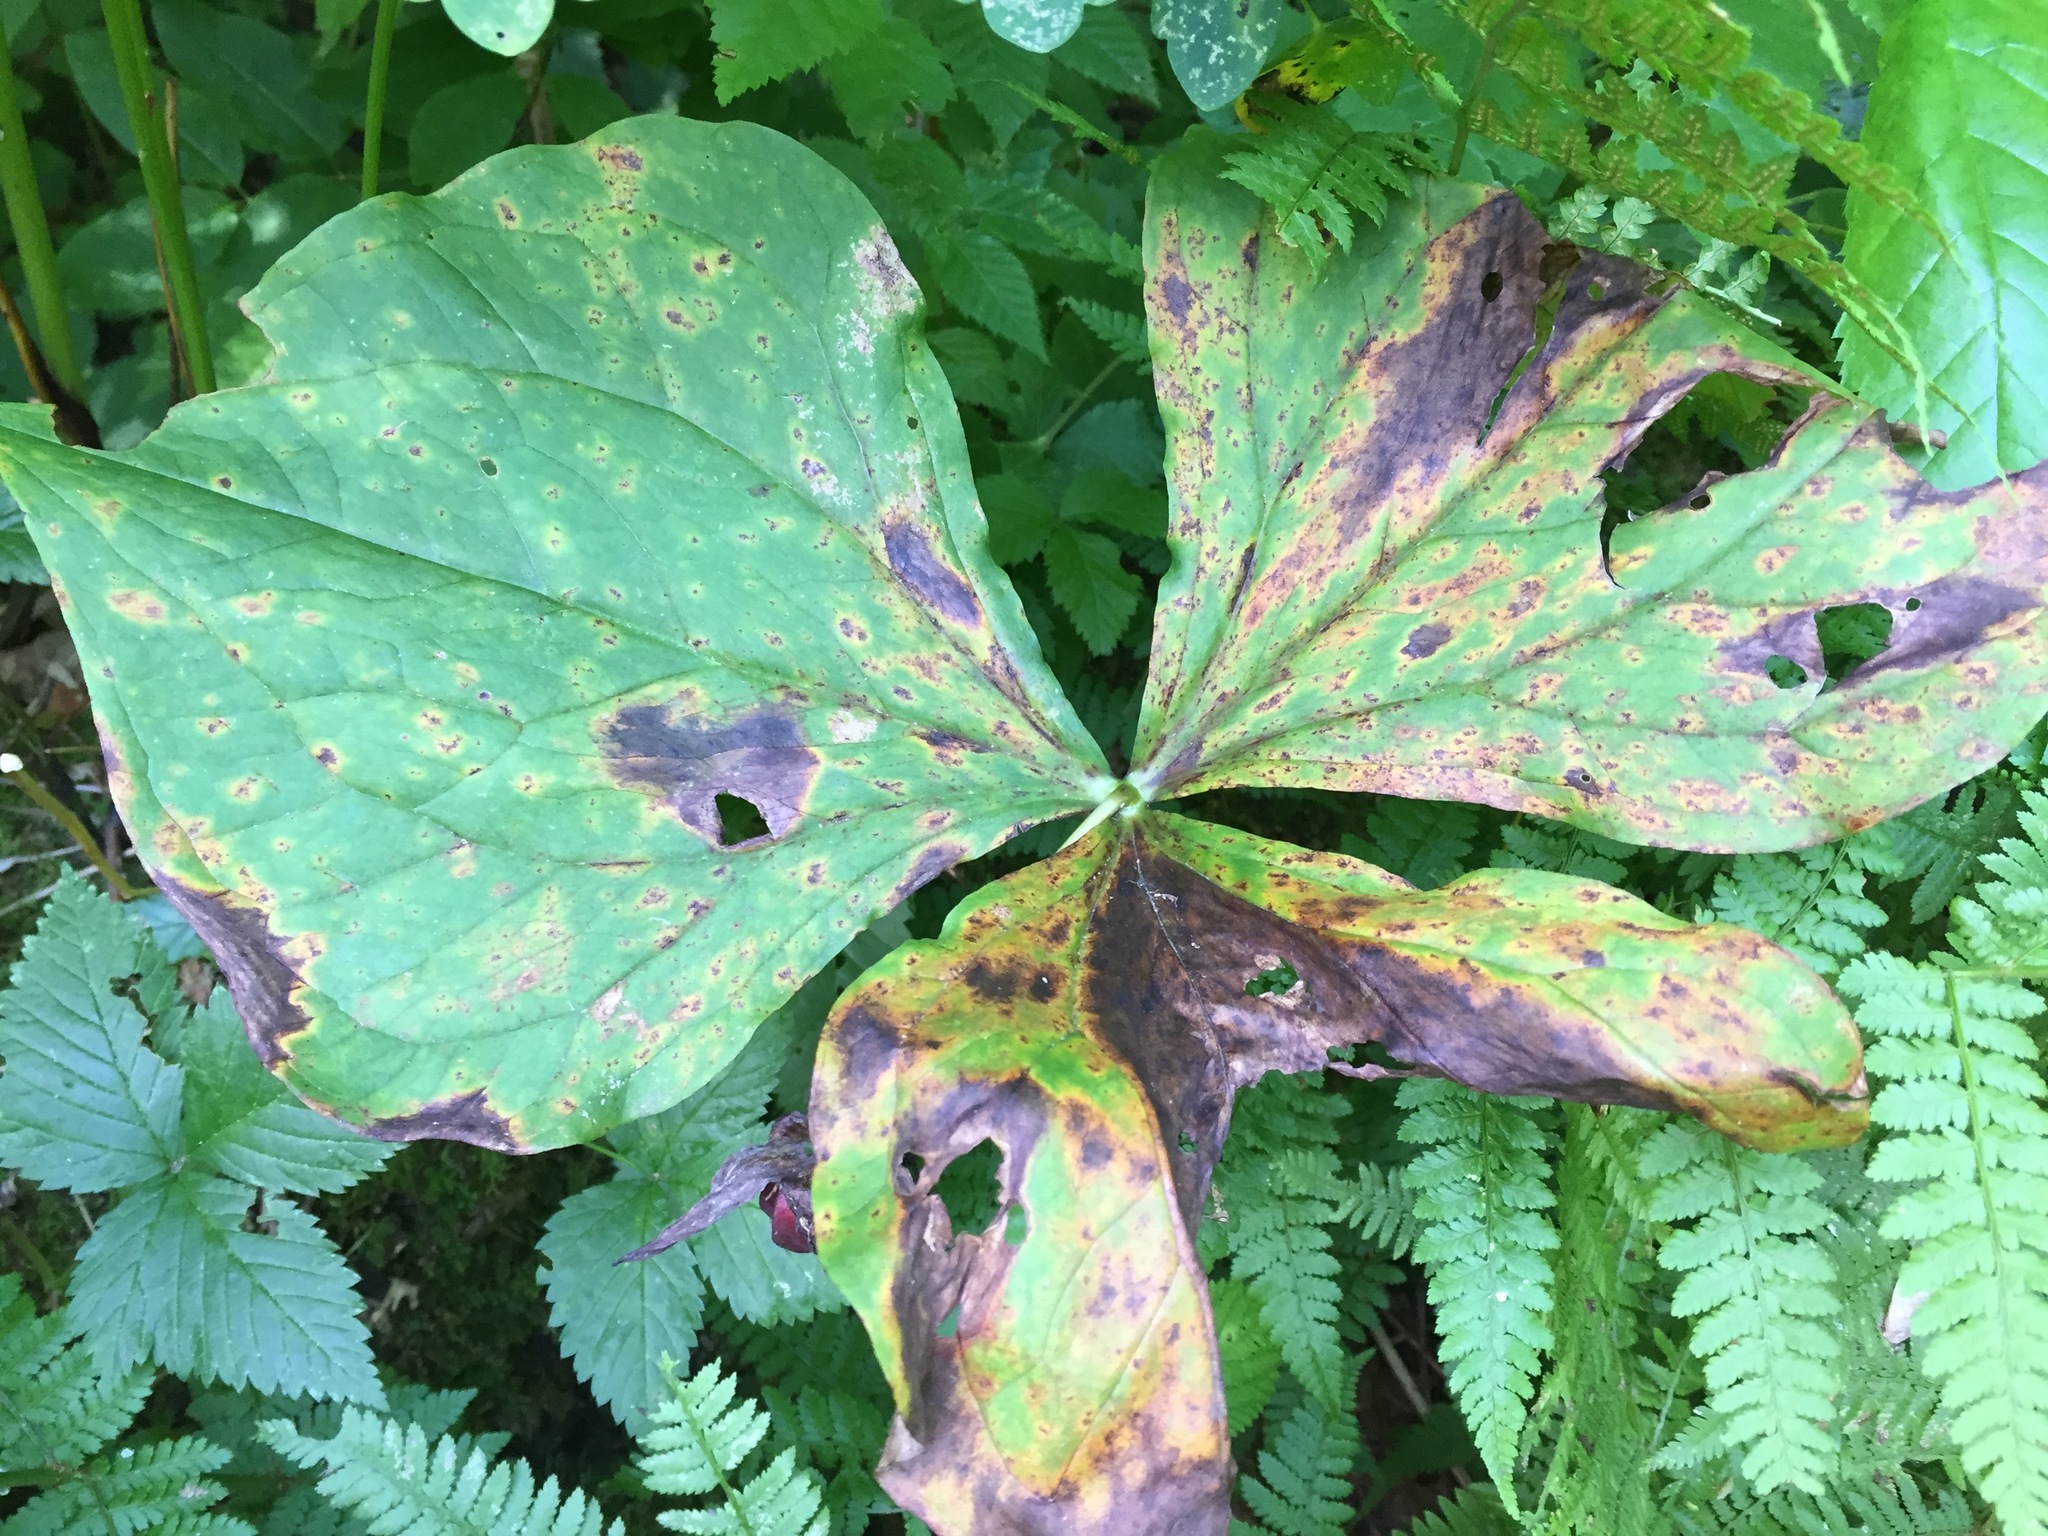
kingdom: Plantae
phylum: Tracheophyta
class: Liliopsida
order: Liliales
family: Melanthiaceae
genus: Trillium
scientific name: Trillium erectum
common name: Purple trillium
